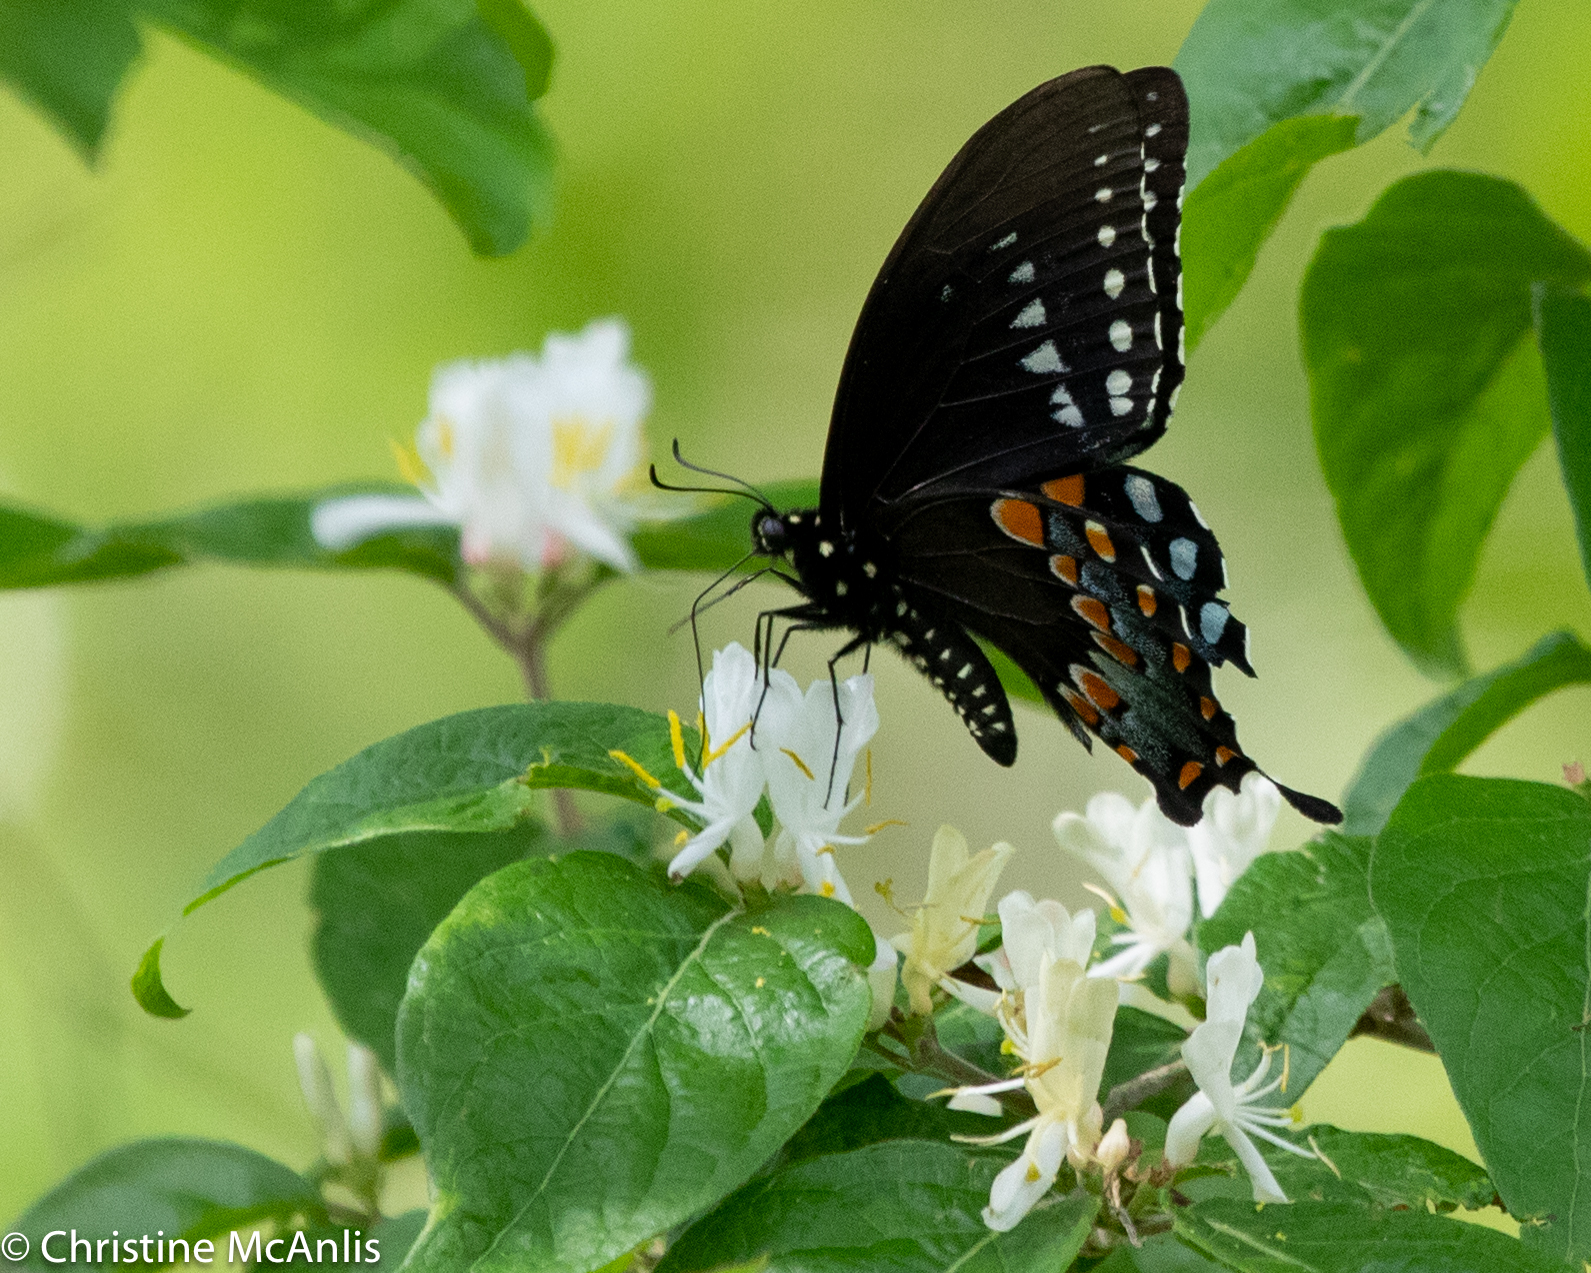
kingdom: Animalia
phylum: Arthropoda
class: Insecta
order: Lepidoptera
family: Papilionidae
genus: Papilio
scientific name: Papilio troilus
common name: Spicebush swallowtail
